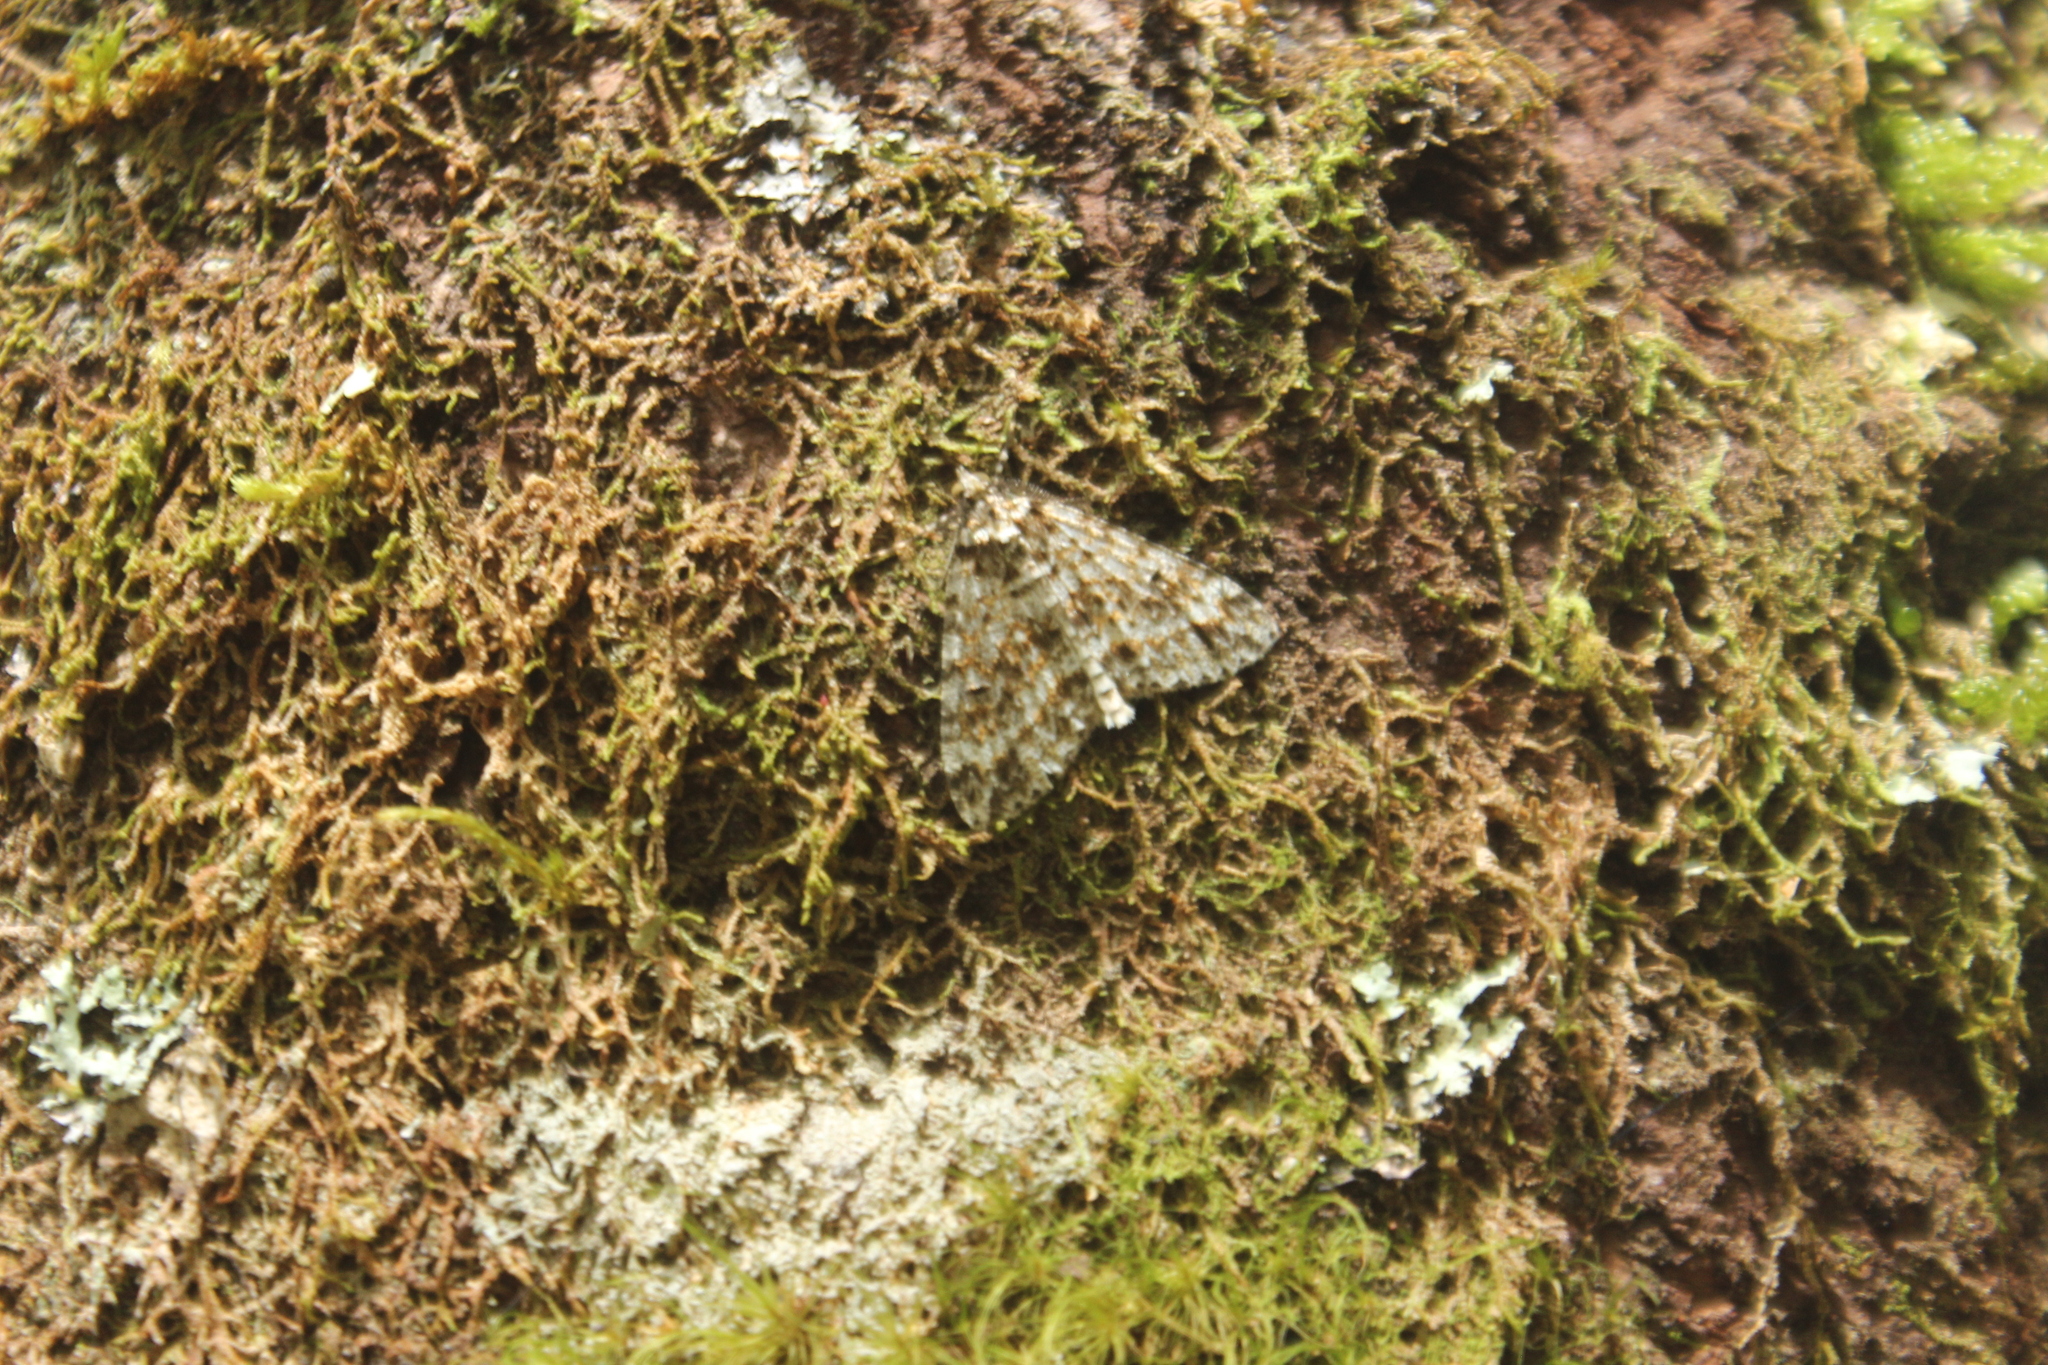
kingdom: Animalia
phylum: Arthropoda
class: Insecta
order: Lepidoptera
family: Geometridae
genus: Pseudocoremia
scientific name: Pseudocoremia monacha
